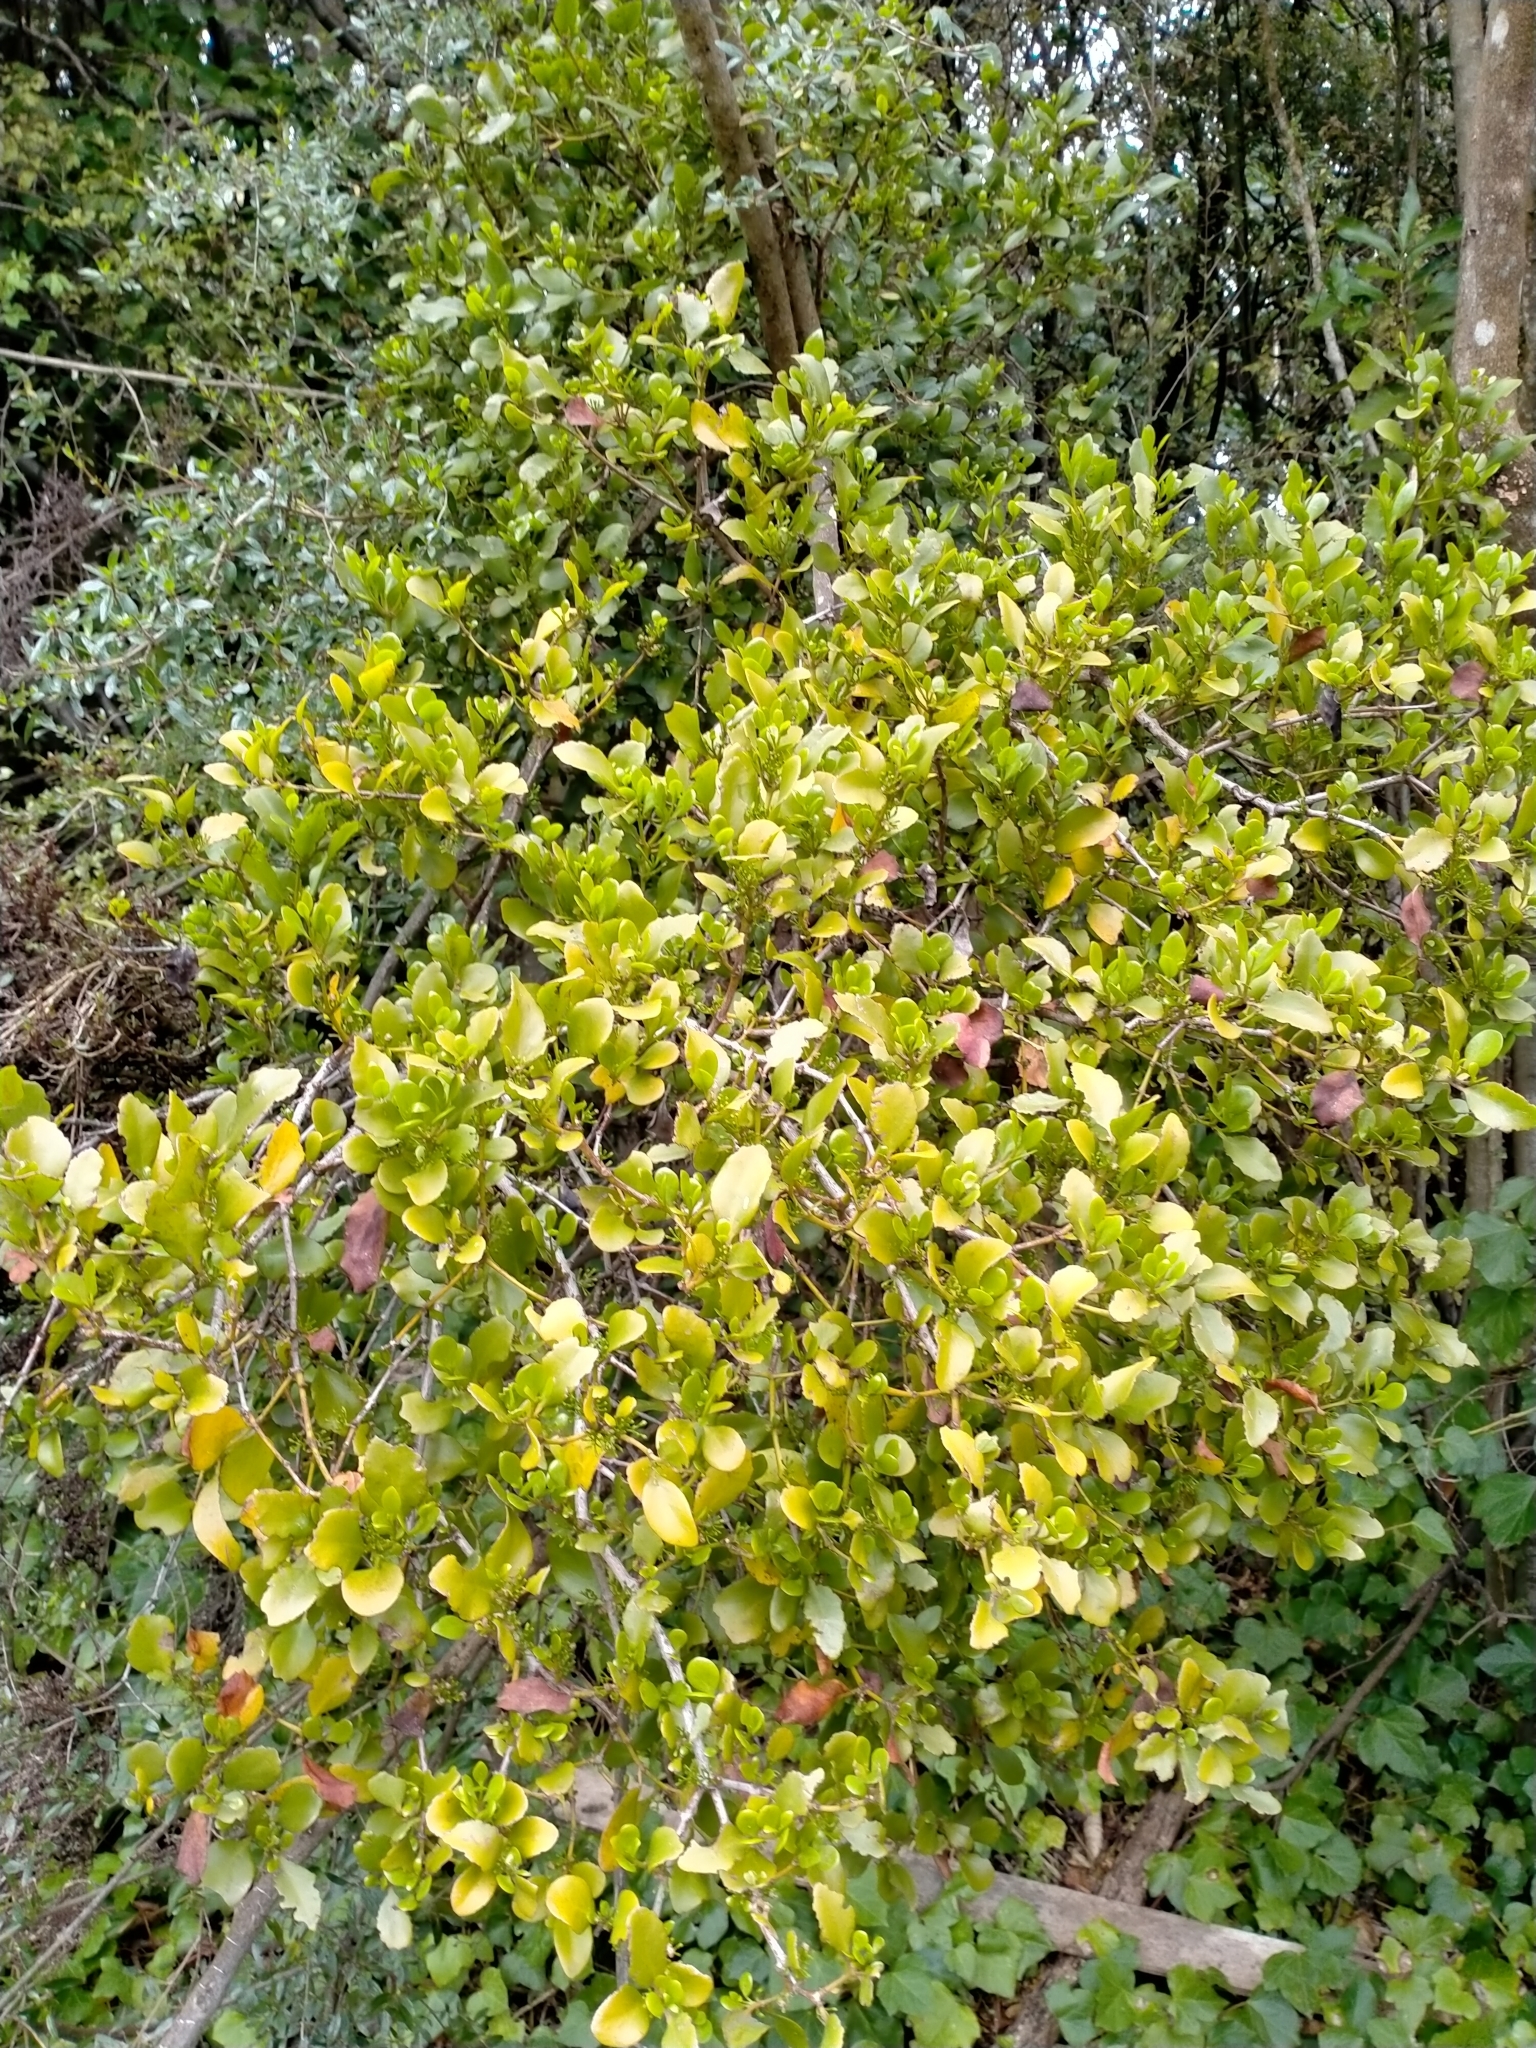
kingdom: Plantae
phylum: Tracheophyta
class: Magnoliopsida
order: Santalales
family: Loranthaceae
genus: Ileostylus
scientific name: Ileostylus micranthus
